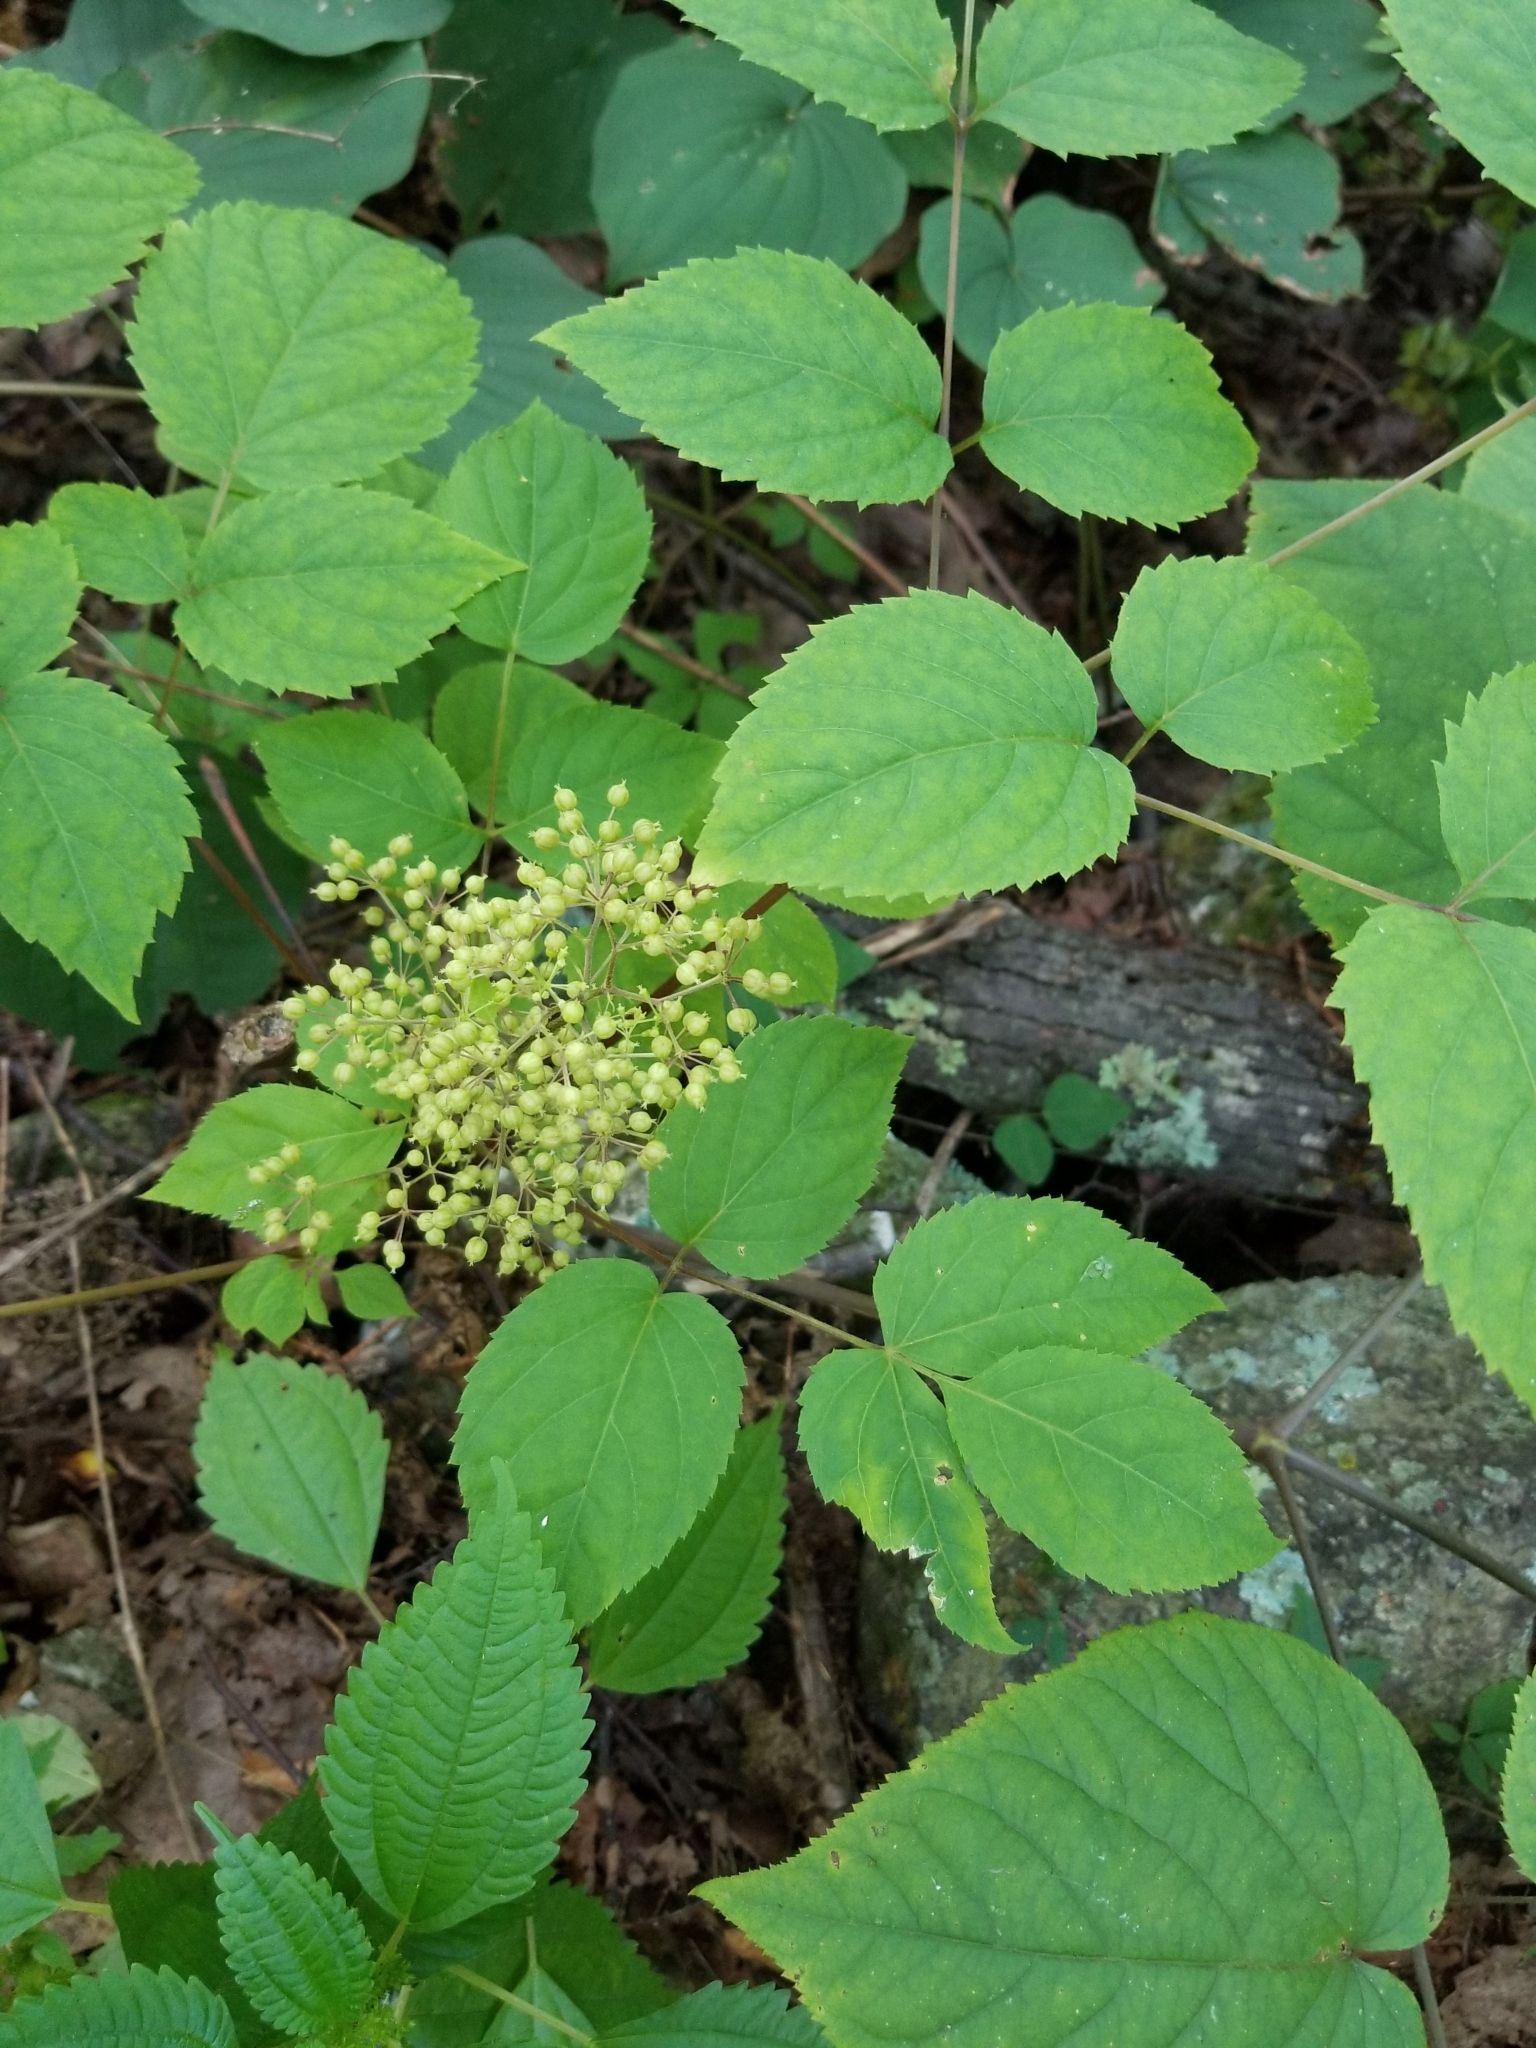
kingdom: Plantae
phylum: Tracheophyta
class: Magnoliopsida
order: Apiales
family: Araliaceae
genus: Aralia
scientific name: Aralia racemosa
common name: American-spikenard
